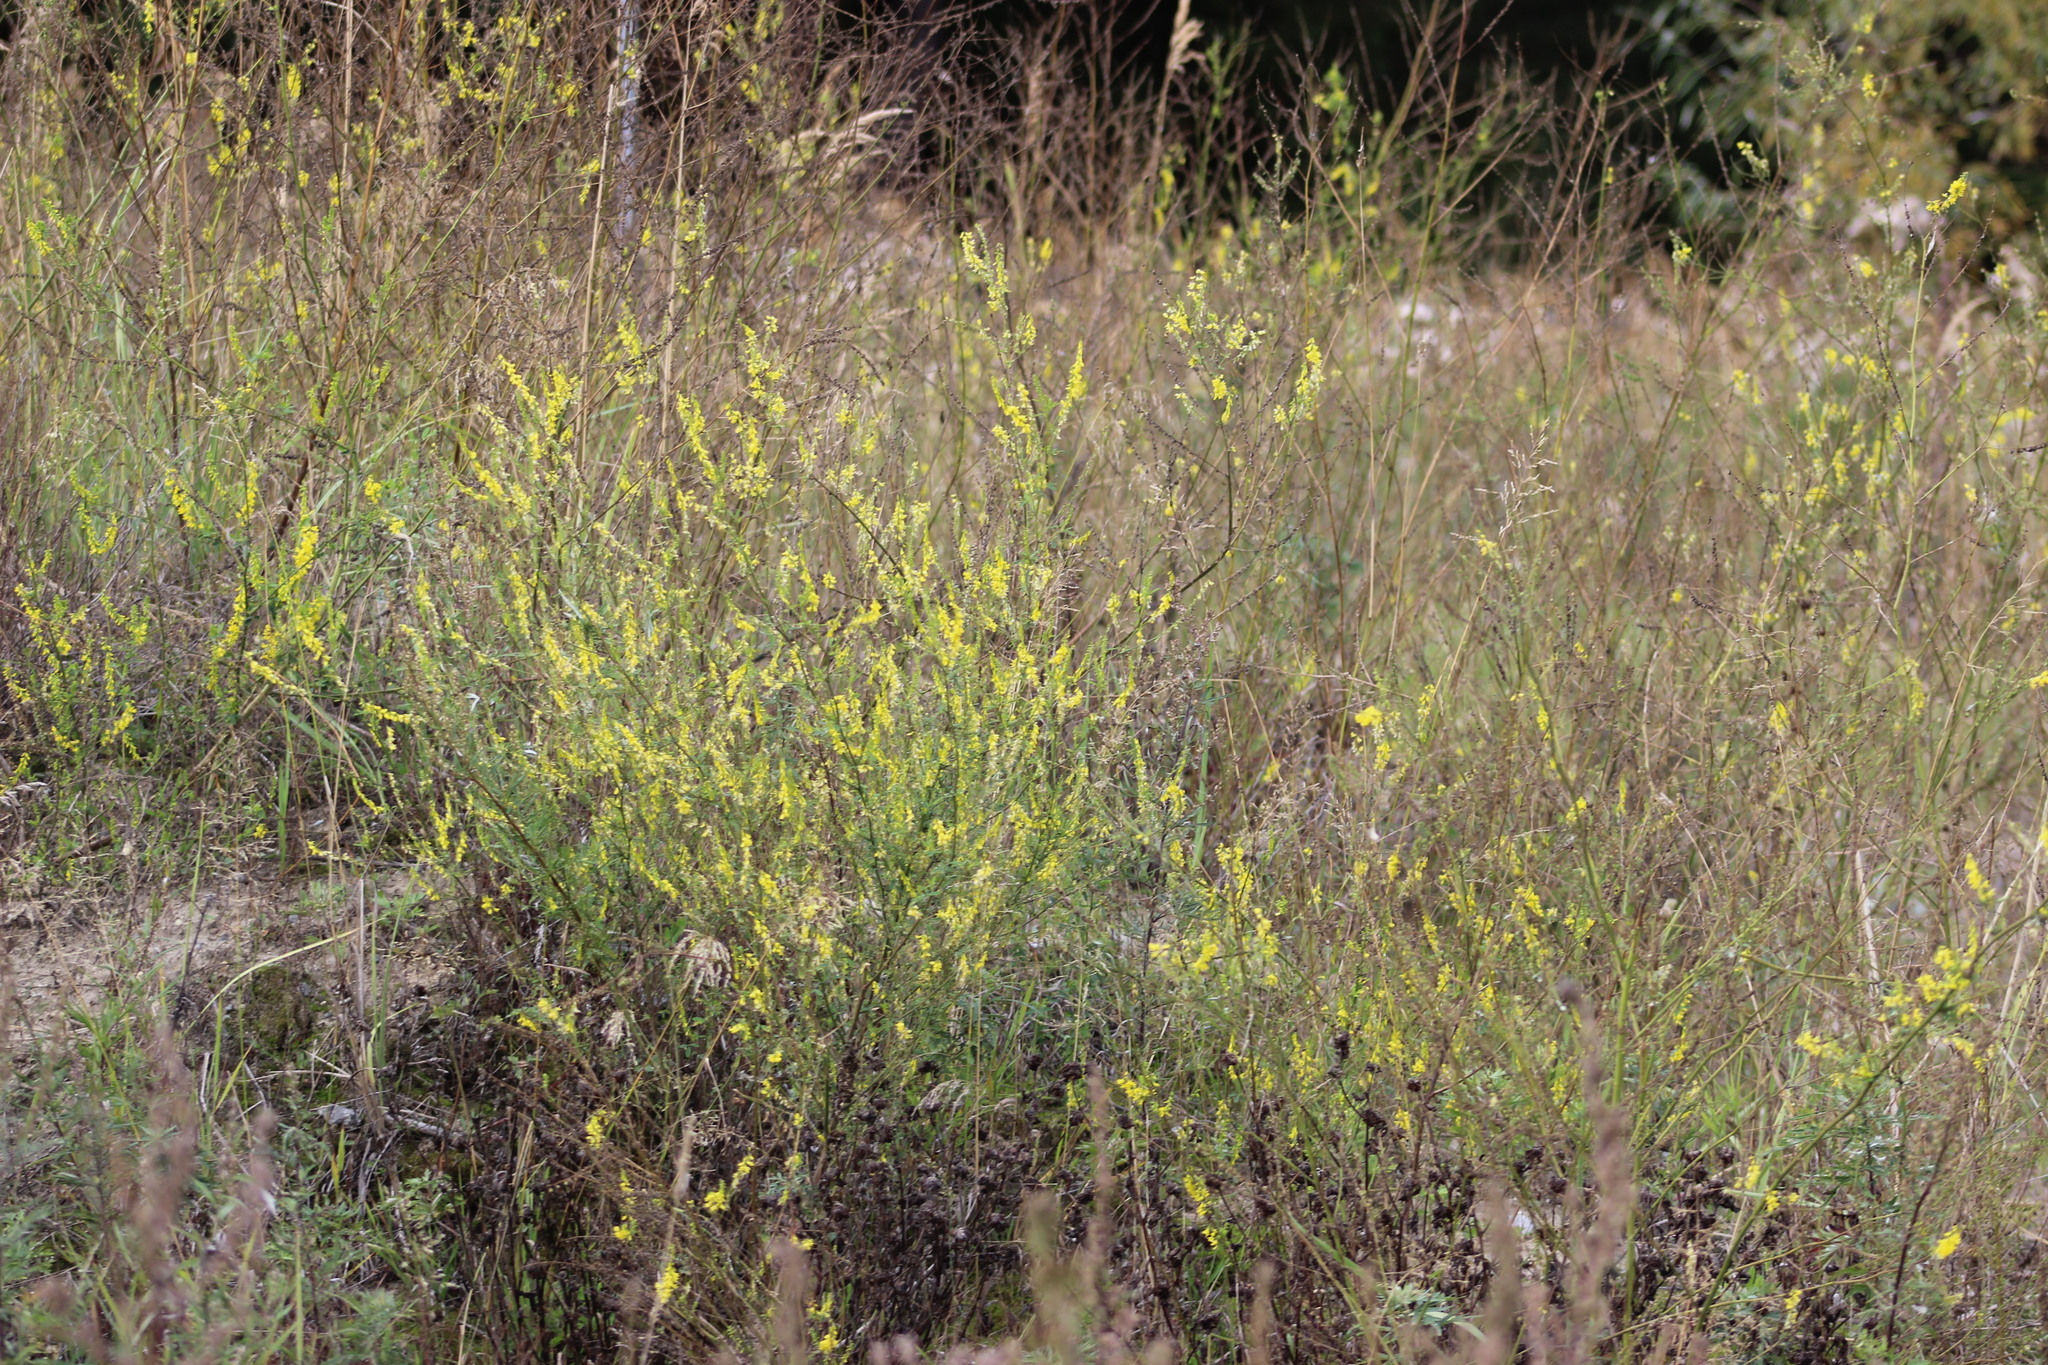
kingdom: Plantae
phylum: Tracheophyta
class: Magnoliopsida
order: Fabales
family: Fabaceae
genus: Melilotus
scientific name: Melilotus officinalis
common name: Sweetclover
